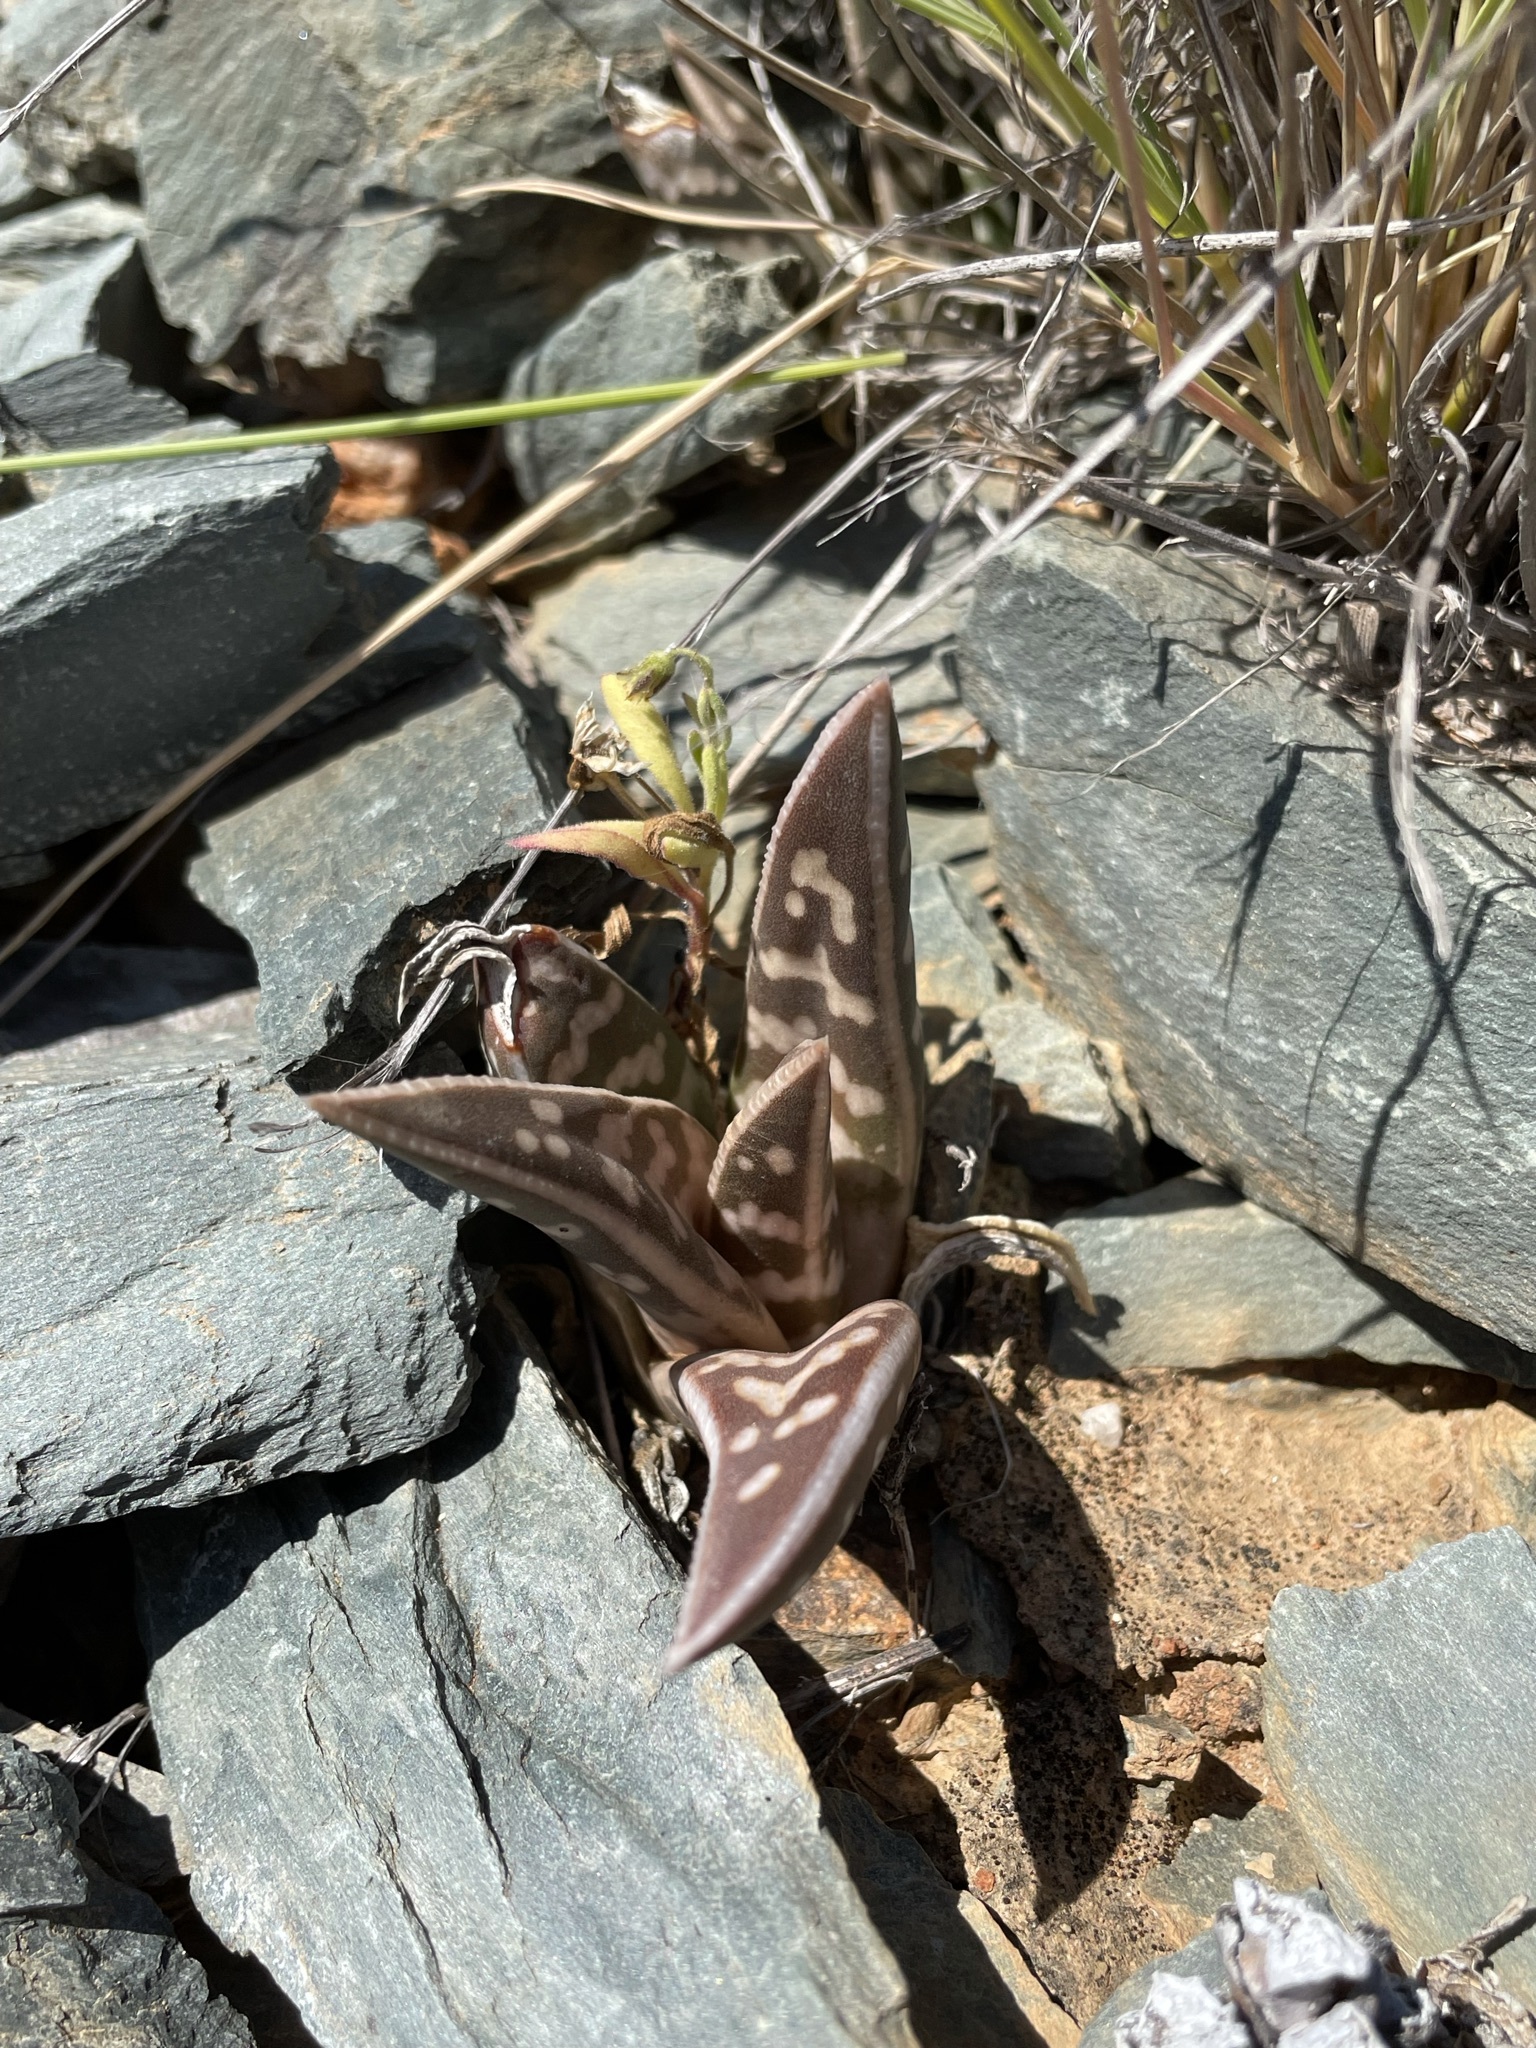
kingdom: Plantae
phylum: Tracheophyta
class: Liliopsida
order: Asparagales
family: Asphodelaceae
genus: Gonialoe
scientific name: Gonialoe variegata
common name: Aloe variegata
